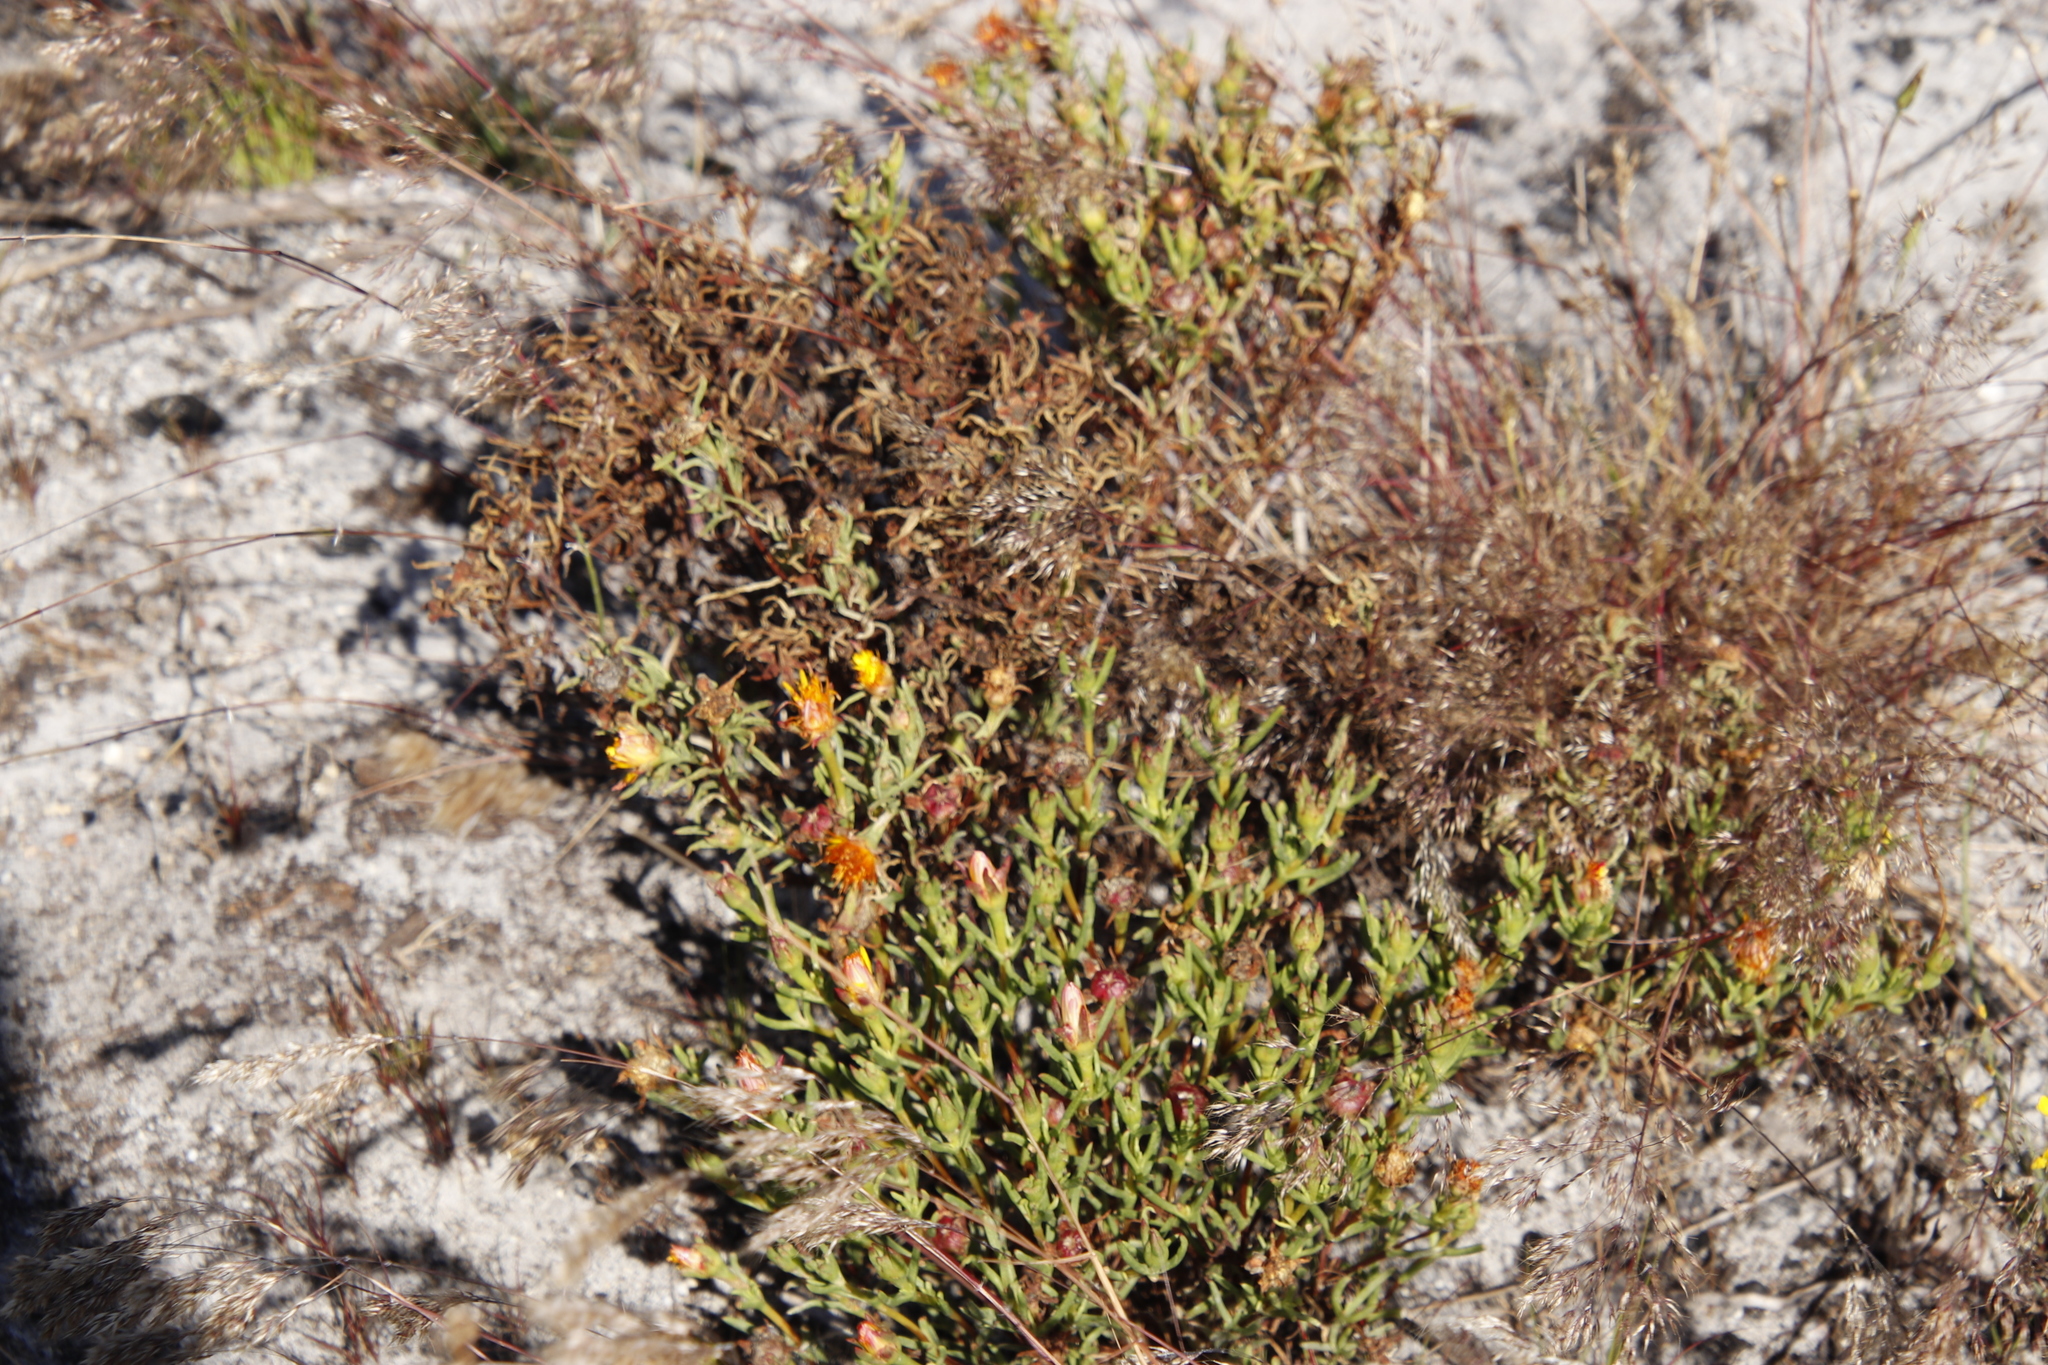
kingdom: Plantae
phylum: Tracheophyta
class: Magnoliopsida
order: Caryophyllales
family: Aizoaceae
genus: Lampranthus
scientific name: Lampranthus bicolor
